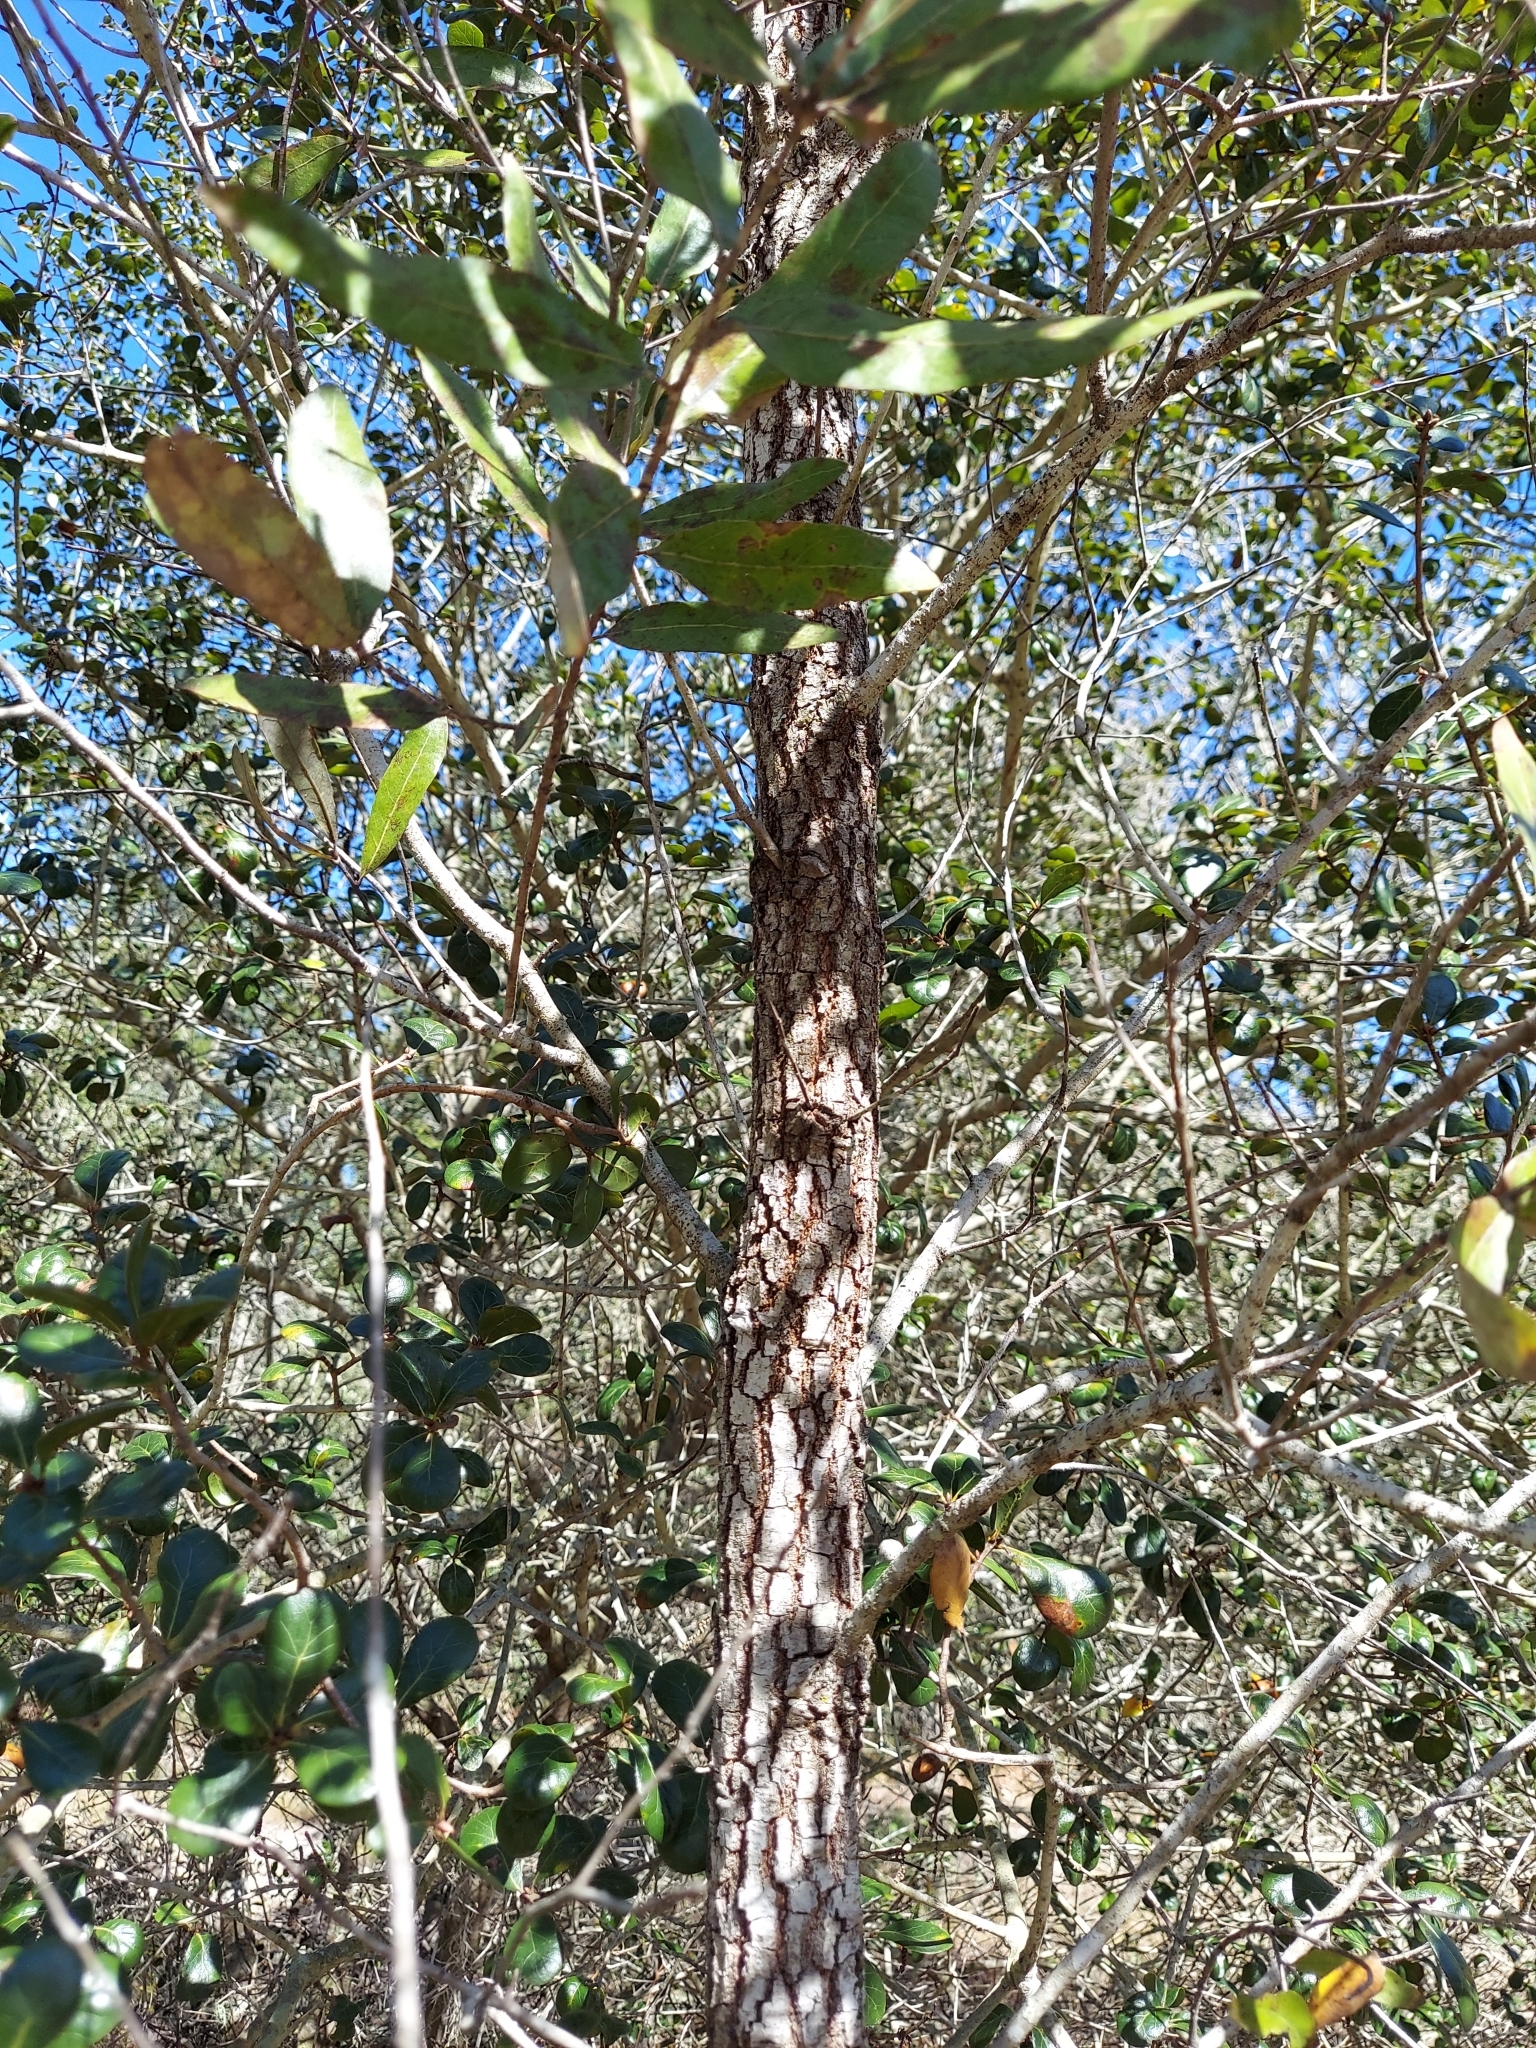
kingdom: Plantae
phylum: Tracheophyta
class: Magnoliopsida
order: Fagales
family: Fagaceae
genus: Quercus
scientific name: Quercus incana
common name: Bluejack oak
